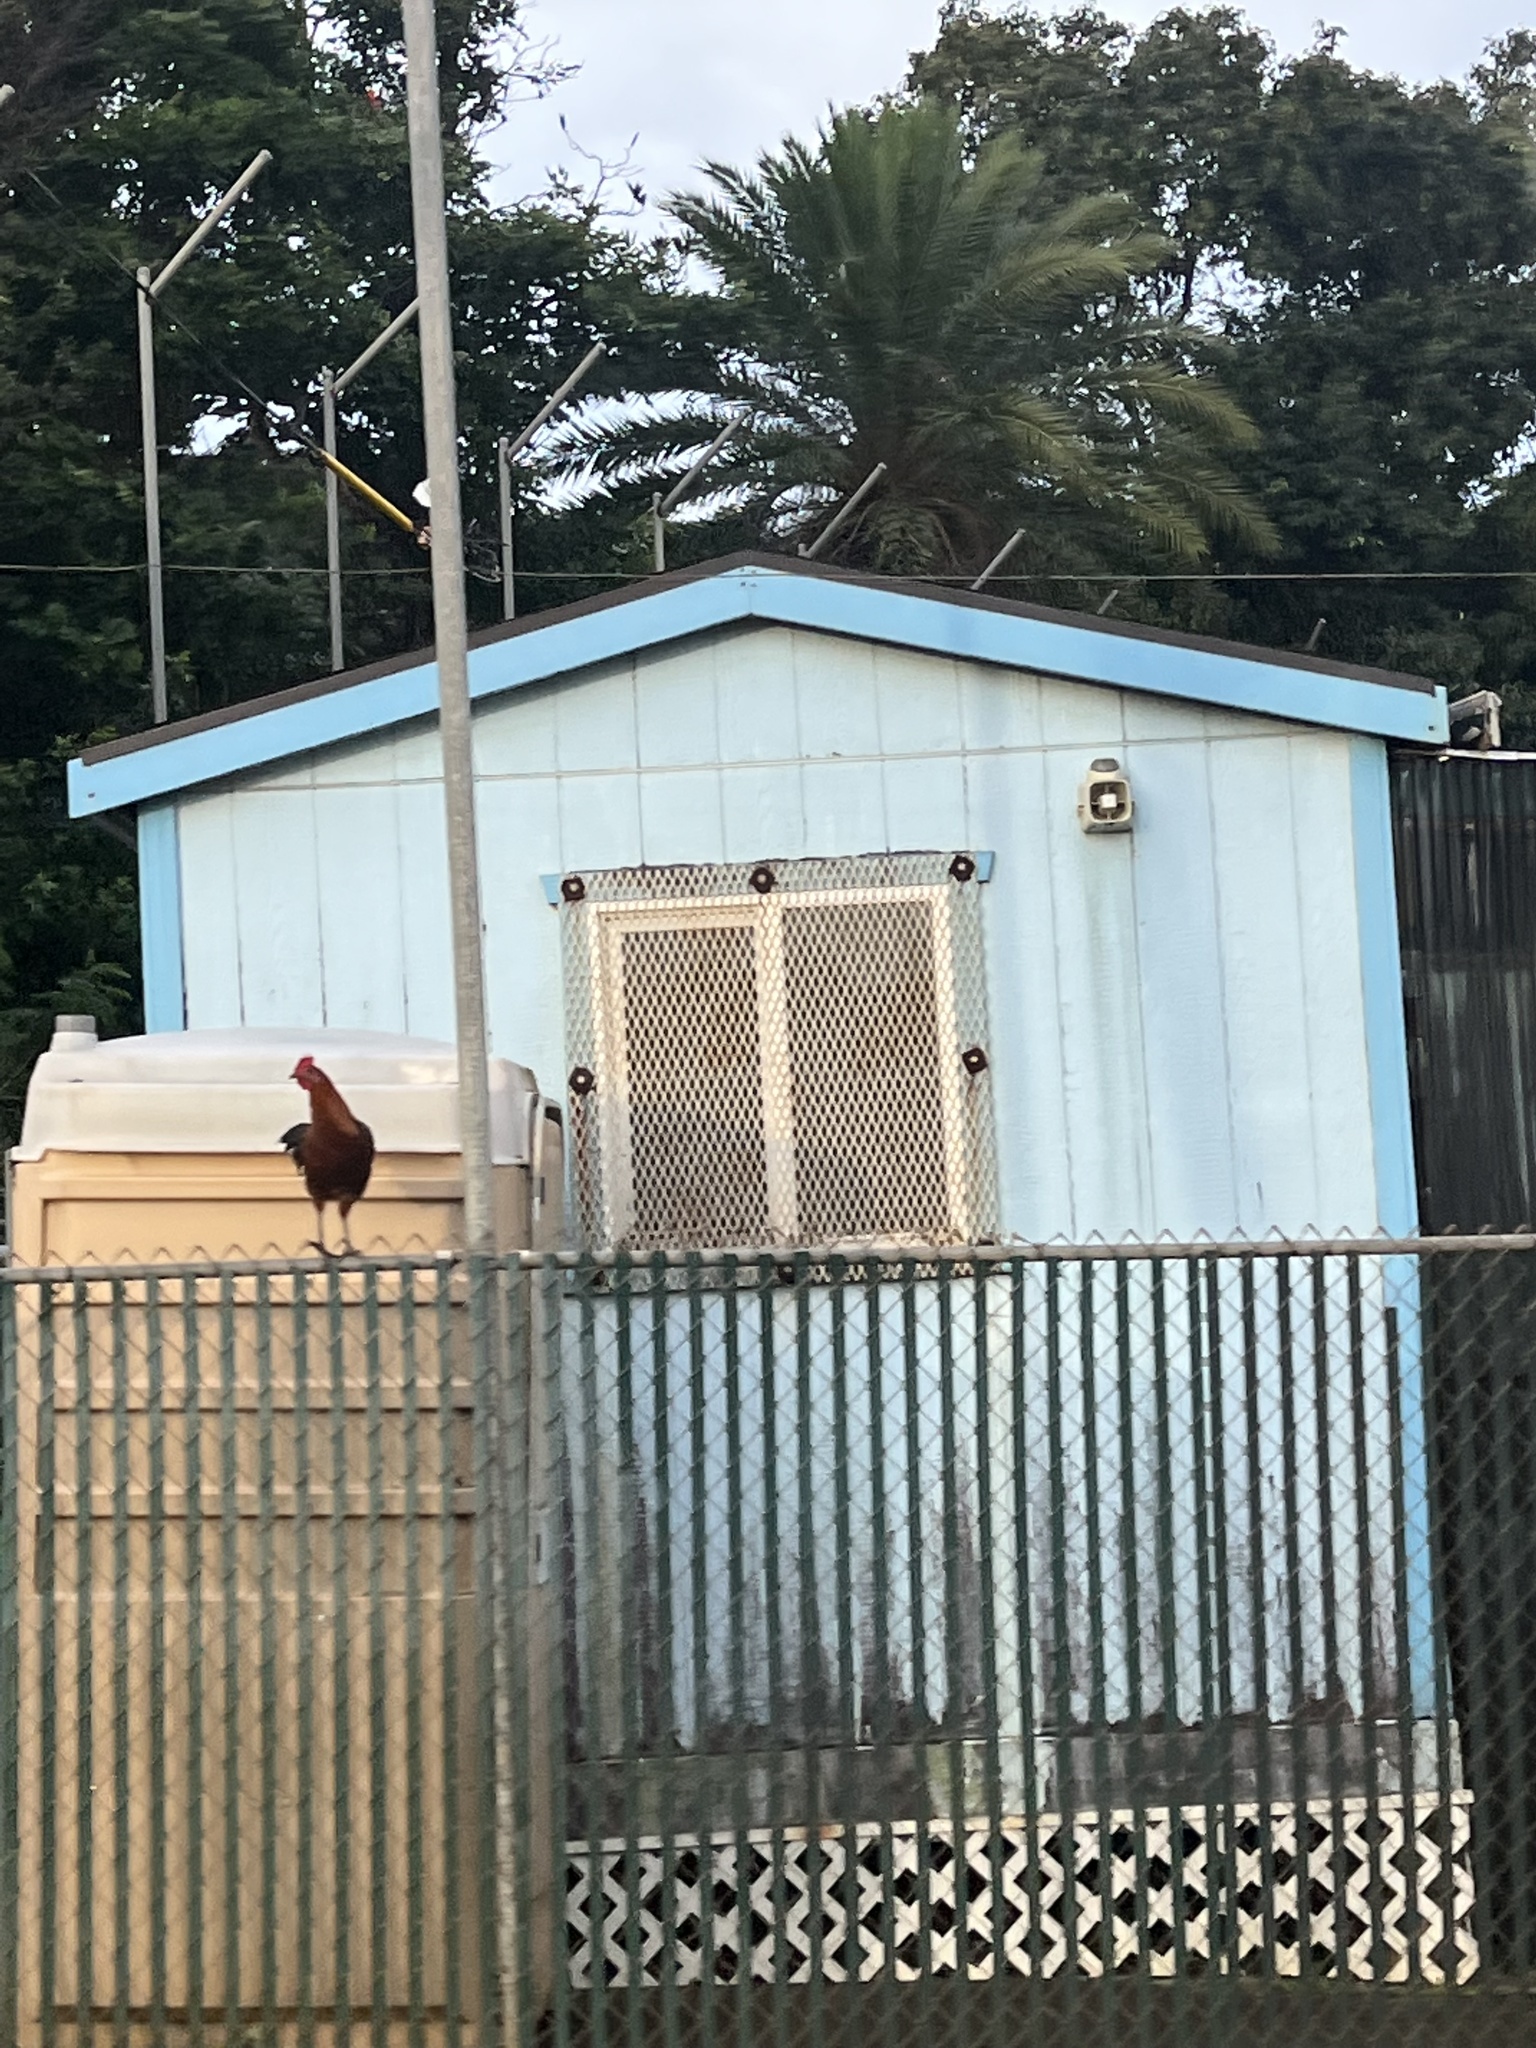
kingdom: Animalia
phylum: Chordata
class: Aves
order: Galliformes
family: Phasianidae
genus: Gallus
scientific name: Gallus gallus
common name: Red junglefowl
